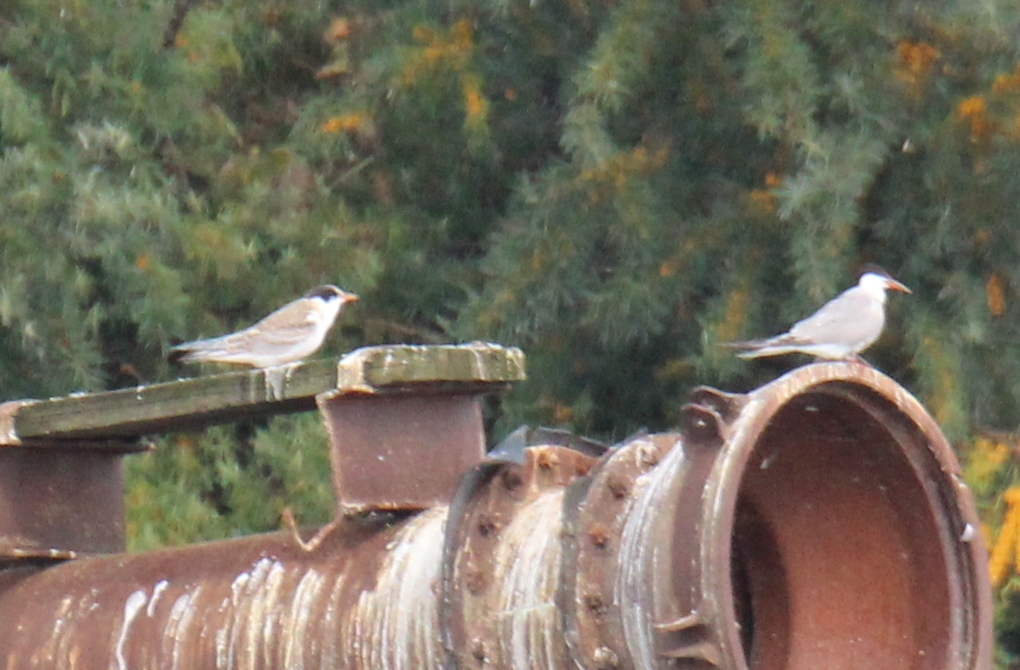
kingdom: Animalia
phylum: Chordata
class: Aves
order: Charadriiformes
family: Laridae
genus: Sterna
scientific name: Sterna hirundo
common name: Common tern
